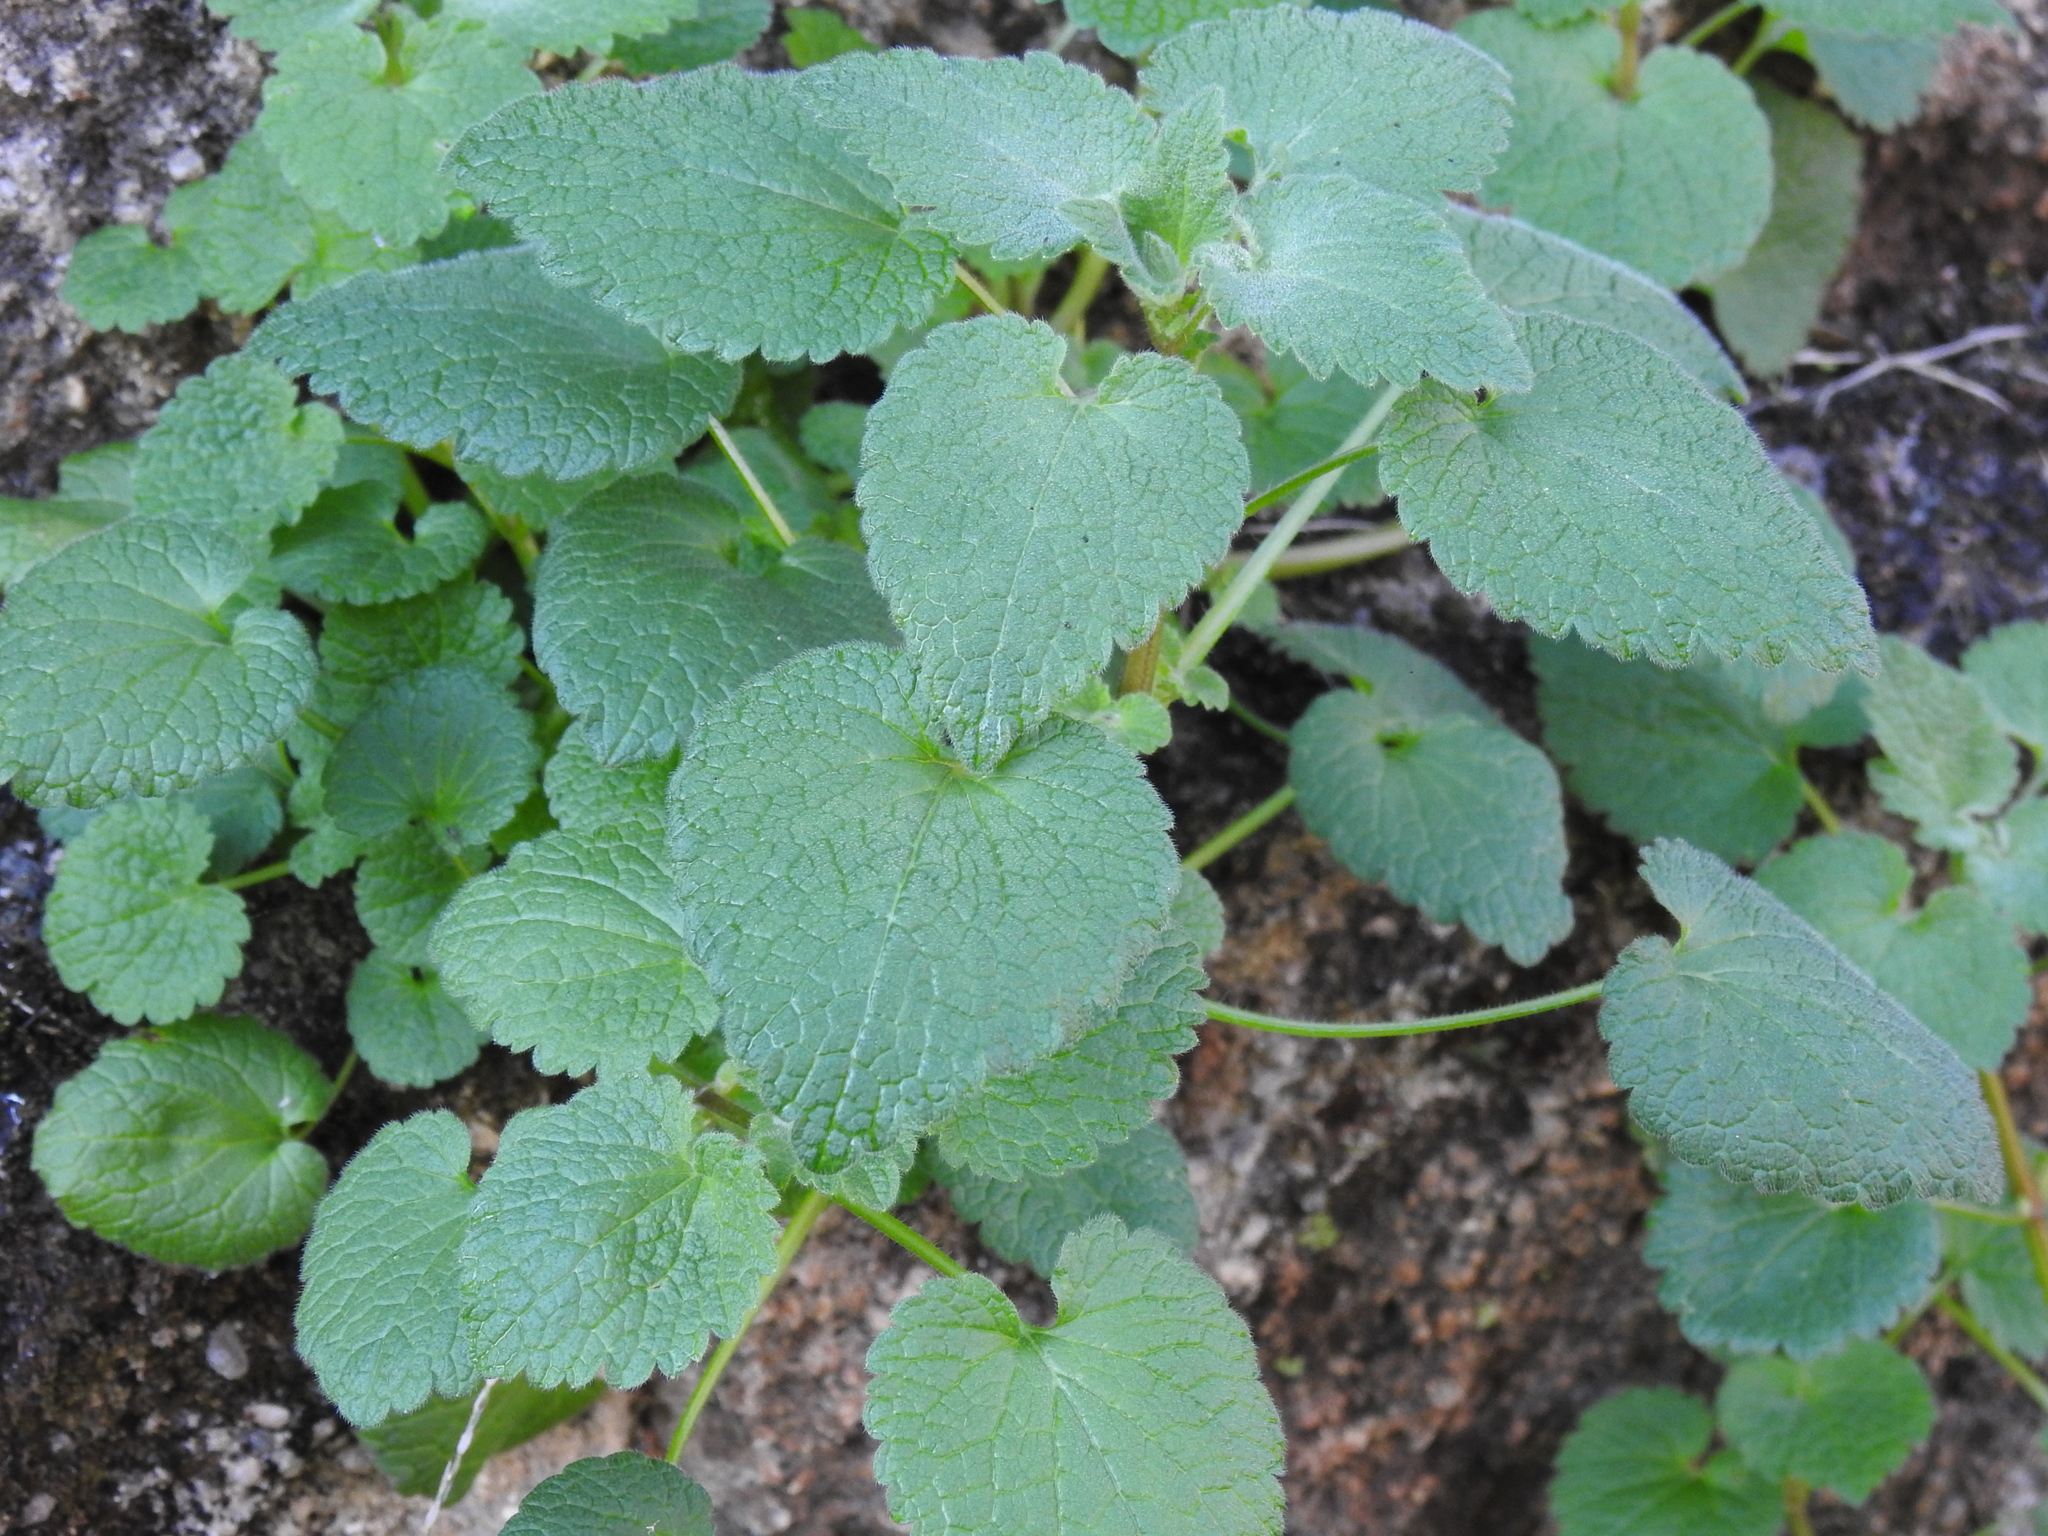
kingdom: Plantae
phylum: Tracheophyta
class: Magnoliopsida
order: Lamiales
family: Lamiaceae
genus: Lamium
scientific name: Lamium purpureum
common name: Red dead-nettle
